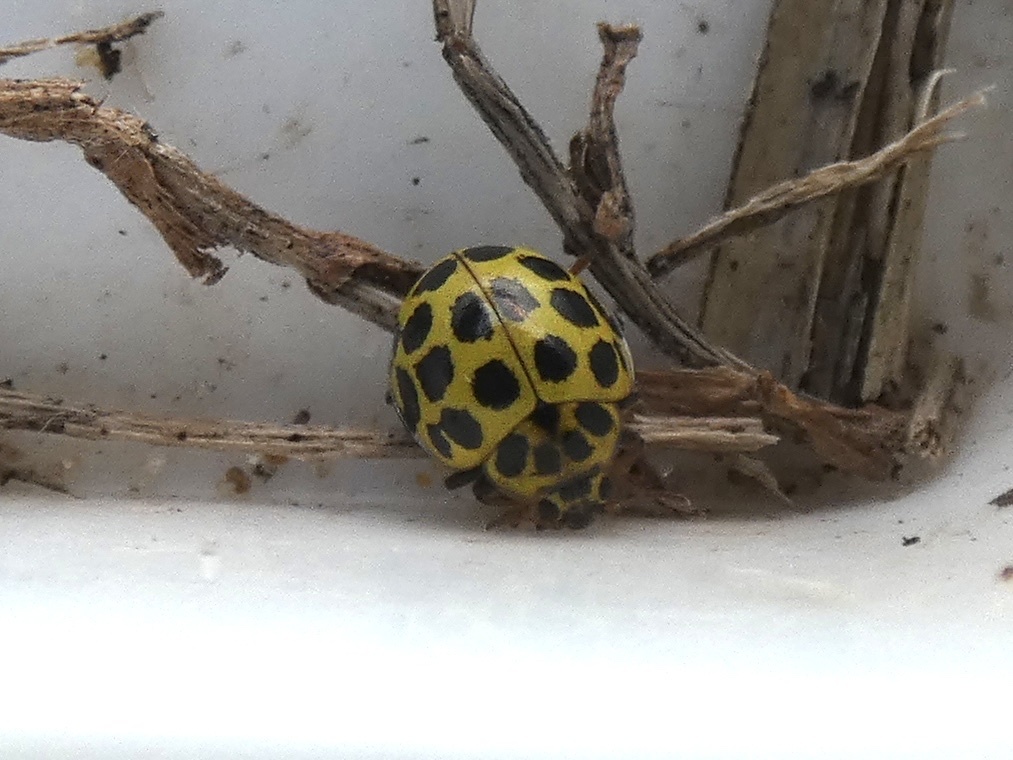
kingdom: Animalia
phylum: Arthropoda
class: Insecta
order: Coleoptera
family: Coccinellidae
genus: Psyllobora
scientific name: Psyllobora vigintiduopunctata
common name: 22-spot ladybird
